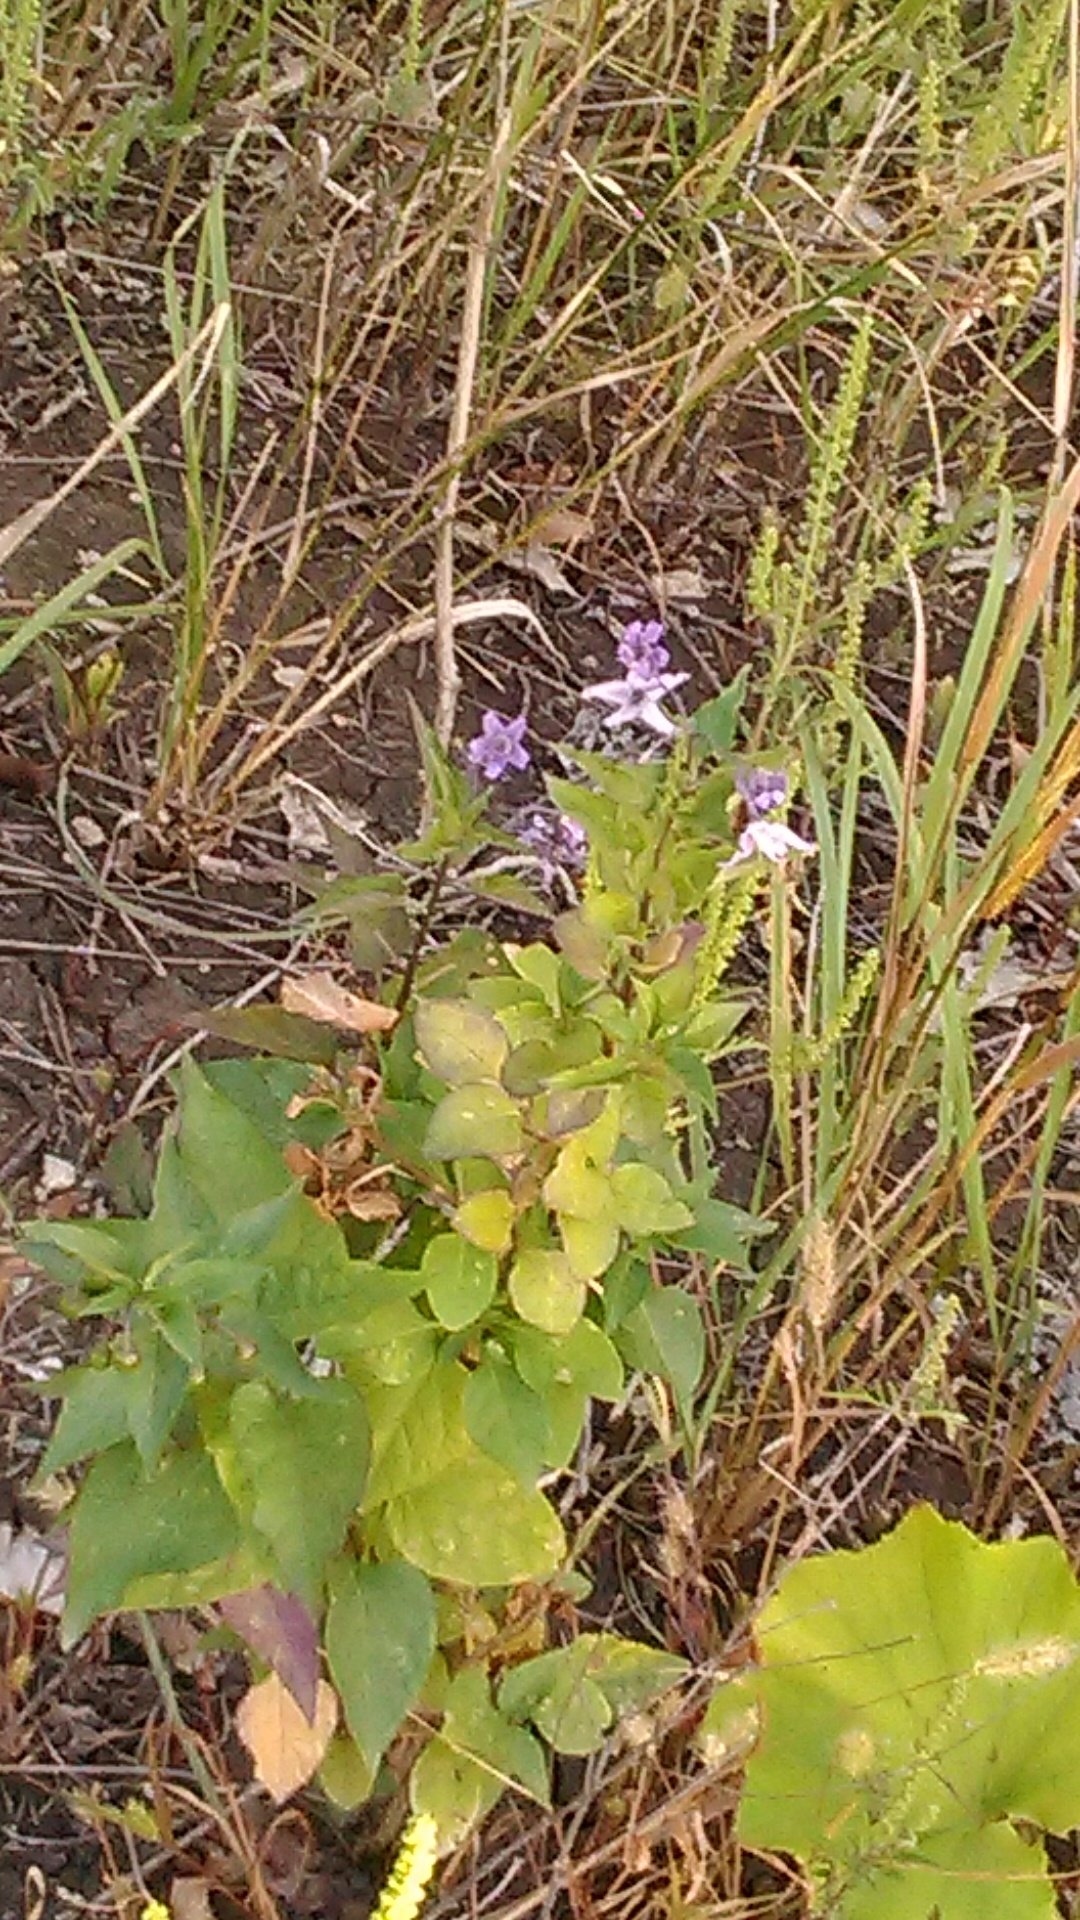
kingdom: Plantae
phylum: Tracheophyta
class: Magnoliopsida
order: Solanales
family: Solanaceae
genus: Solanum
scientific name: Solanum dulcamara
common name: Climbing nightshade
